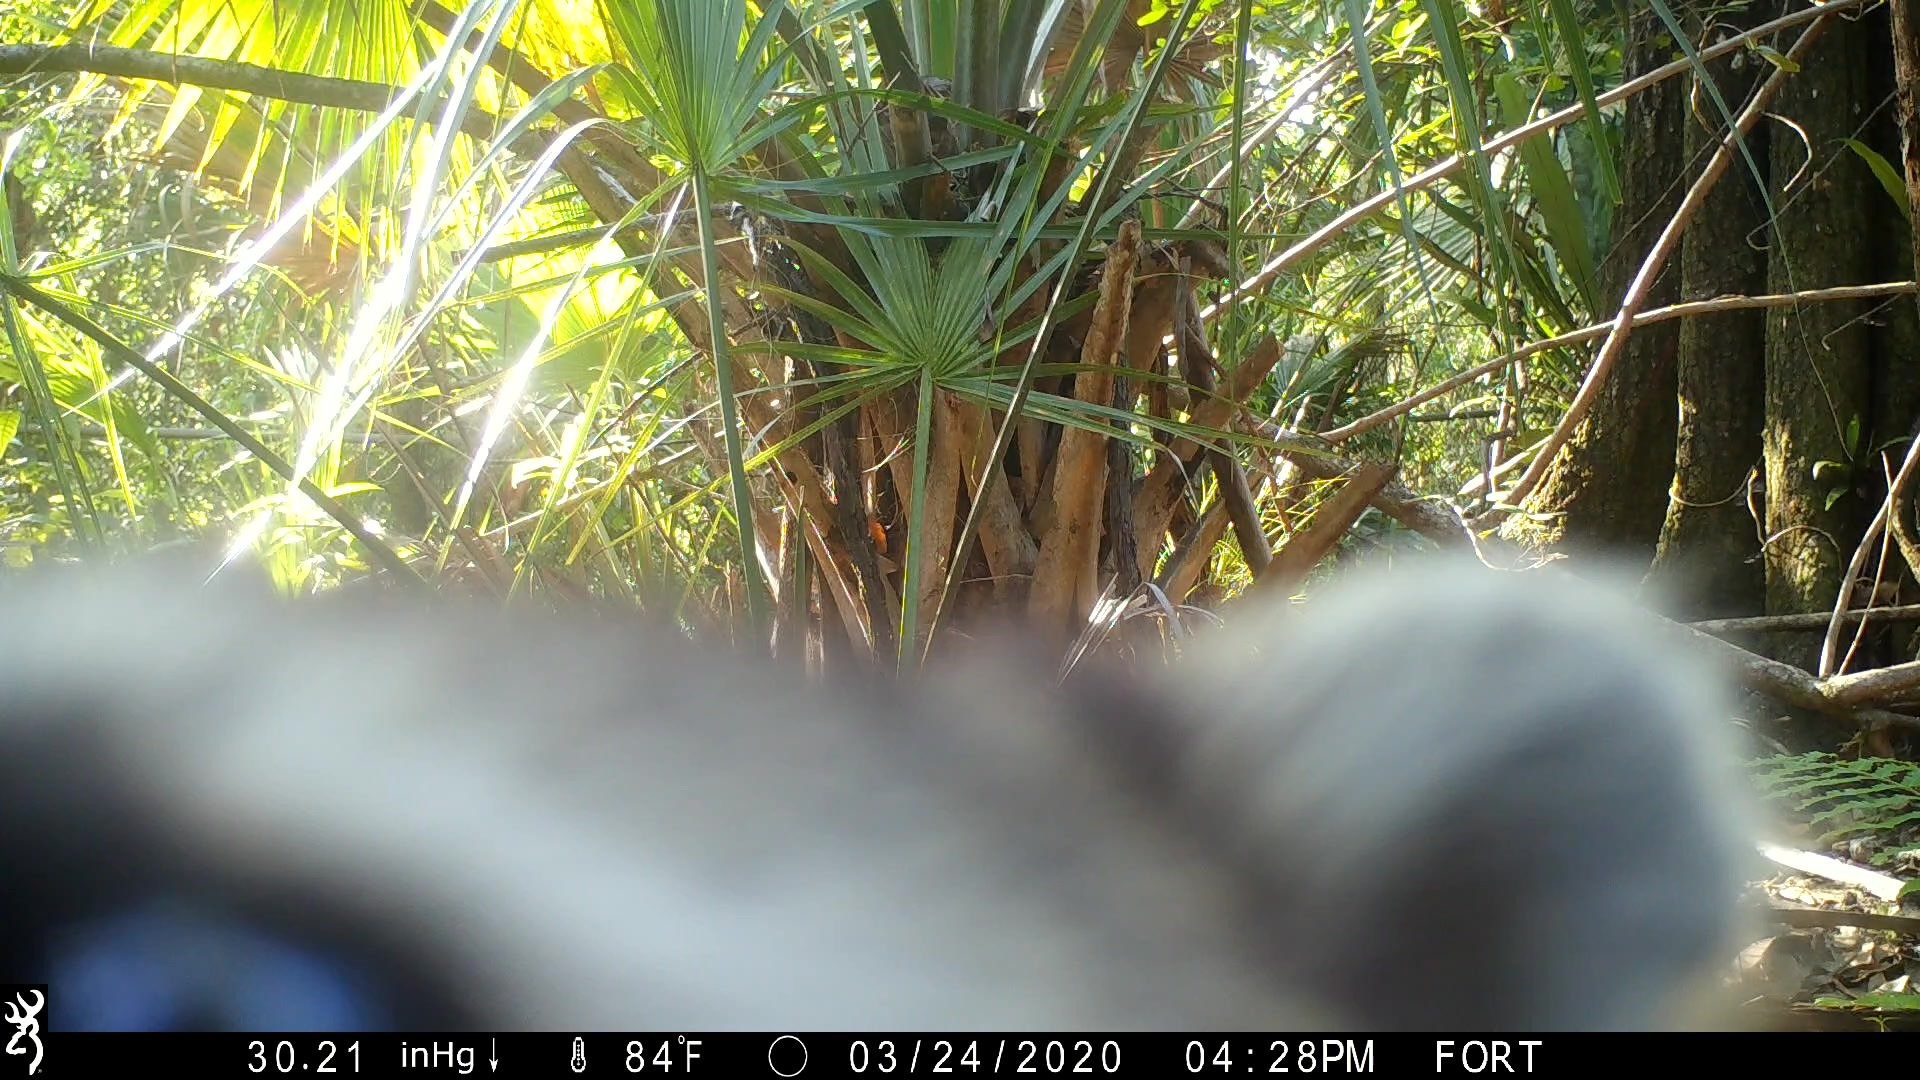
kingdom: Animalia
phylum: Chordata
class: Mammalia
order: Carnivora
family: Procyonidae
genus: Procyon
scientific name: Procyon lotor
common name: Raccoon
